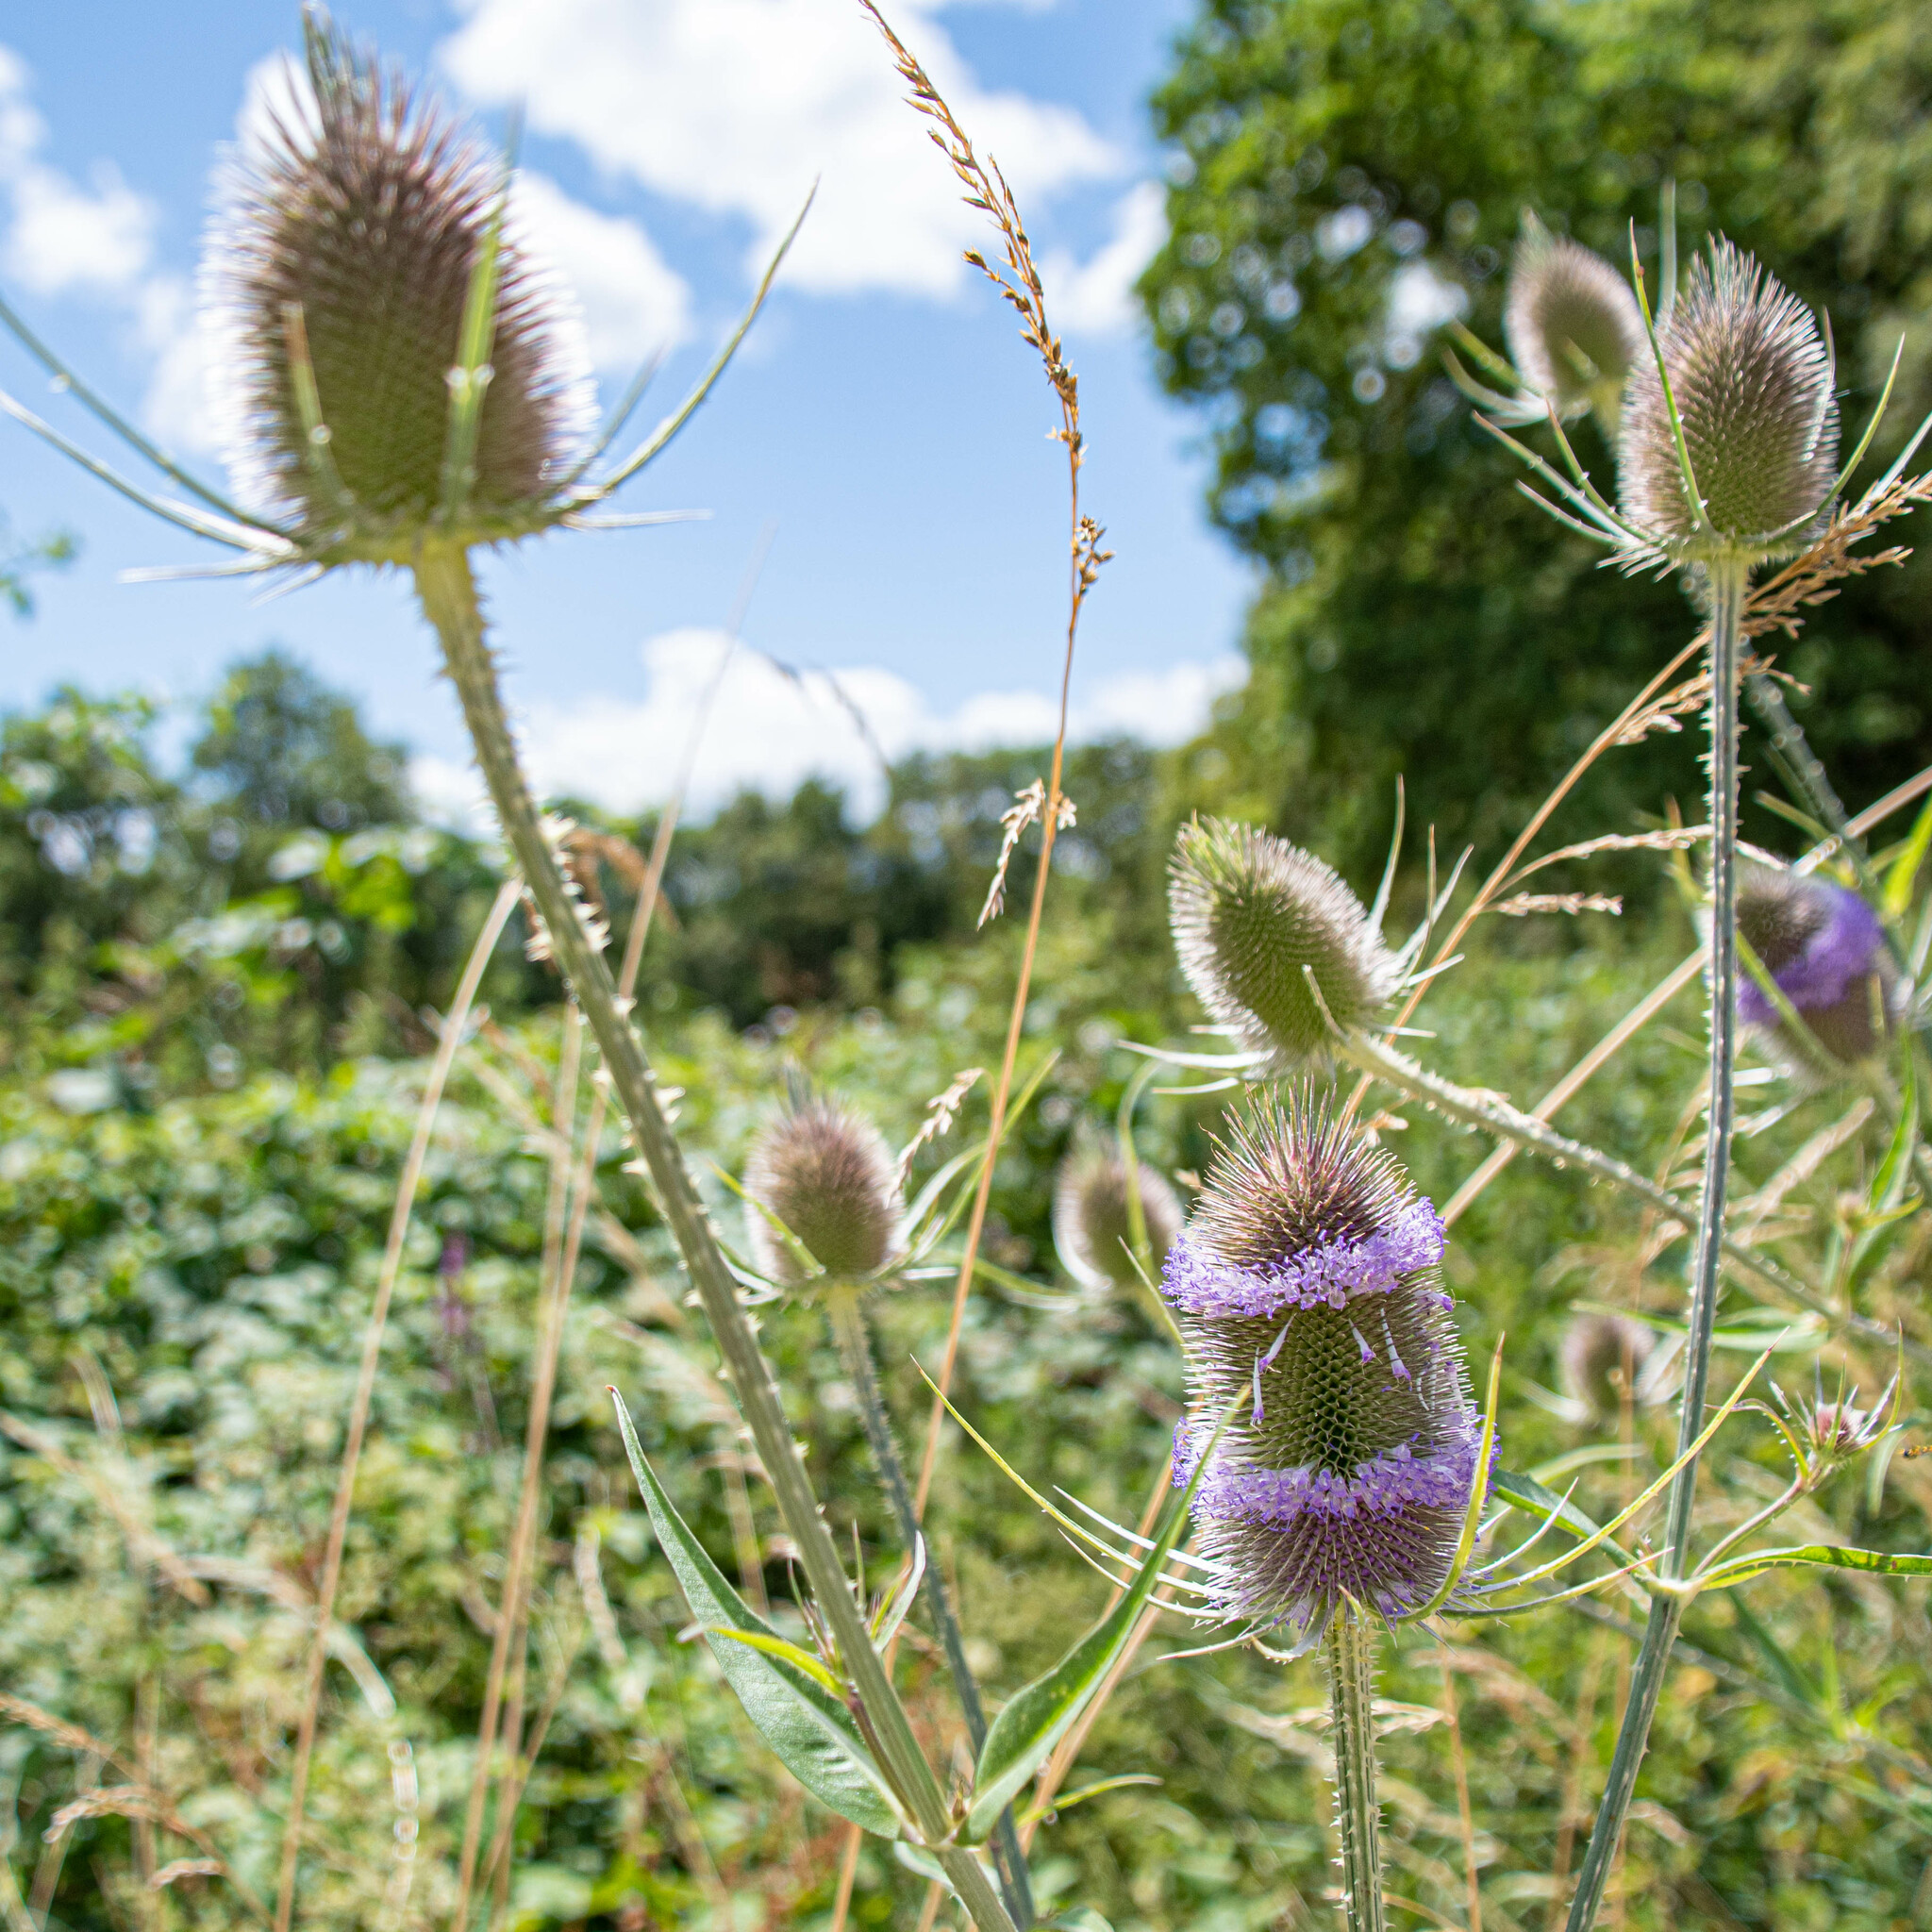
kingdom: Plantae
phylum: Tracheophyta
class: Magnoliopsida
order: Dipsacales
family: Caprifoliaceae
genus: Dipsacus
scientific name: Dipsacus fullonum
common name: Teasel
